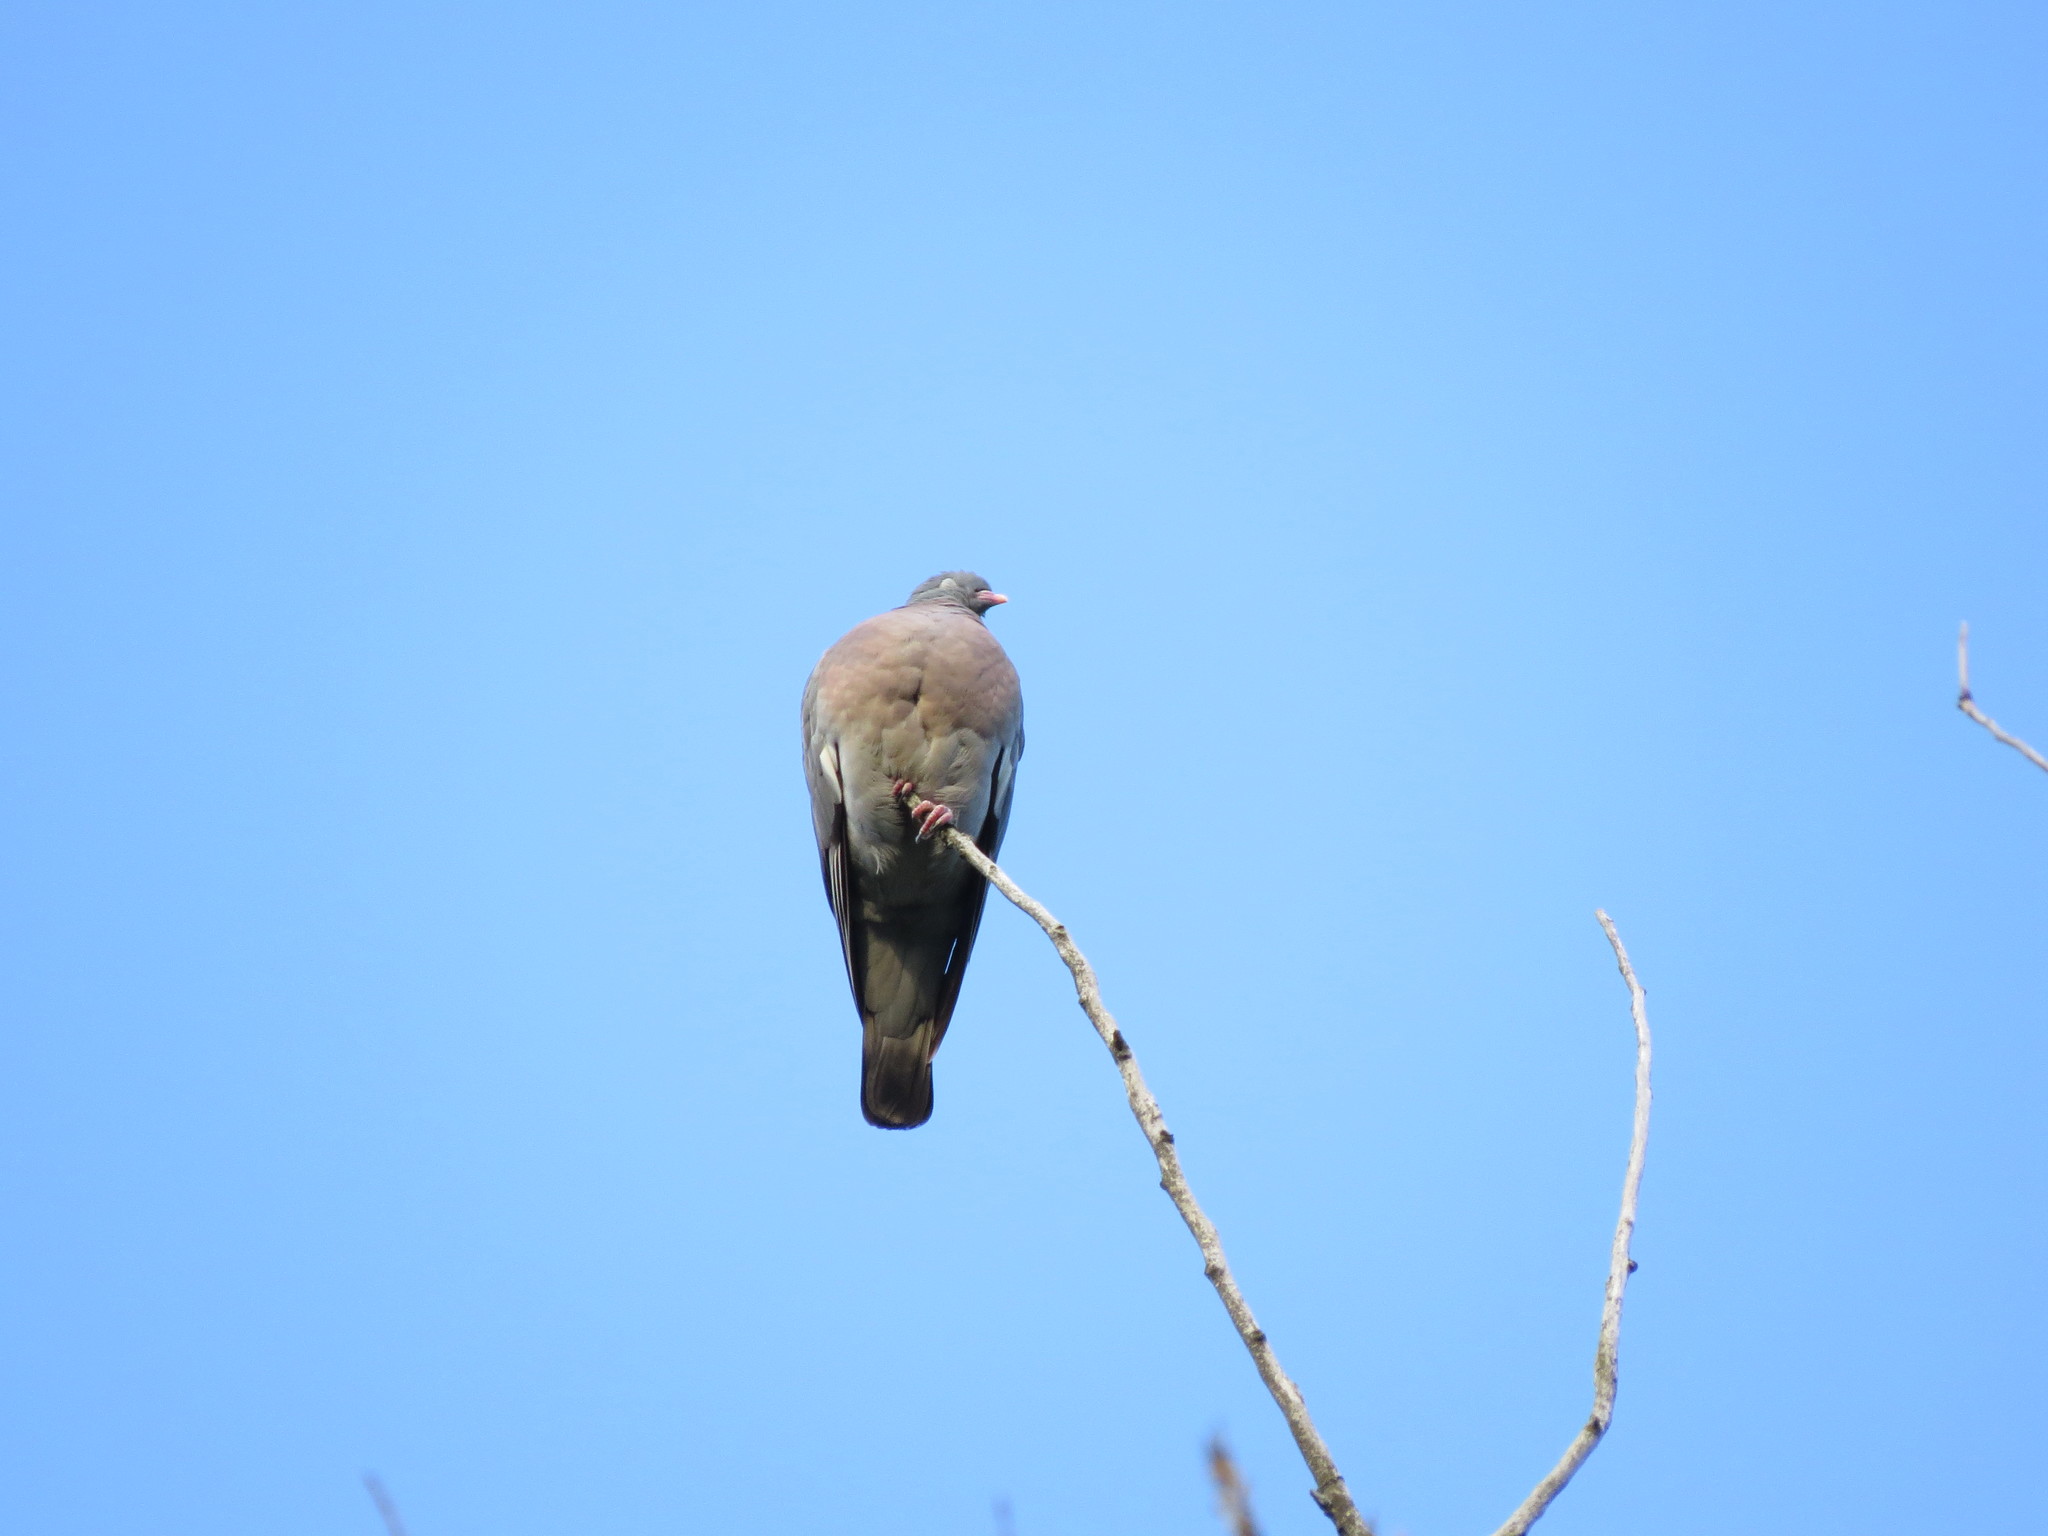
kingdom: Animalia
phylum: Chordata
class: Aves
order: Columbiformes
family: Columbidae
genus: Columba
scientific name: Columba palumbus
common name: Common wood pigeon
